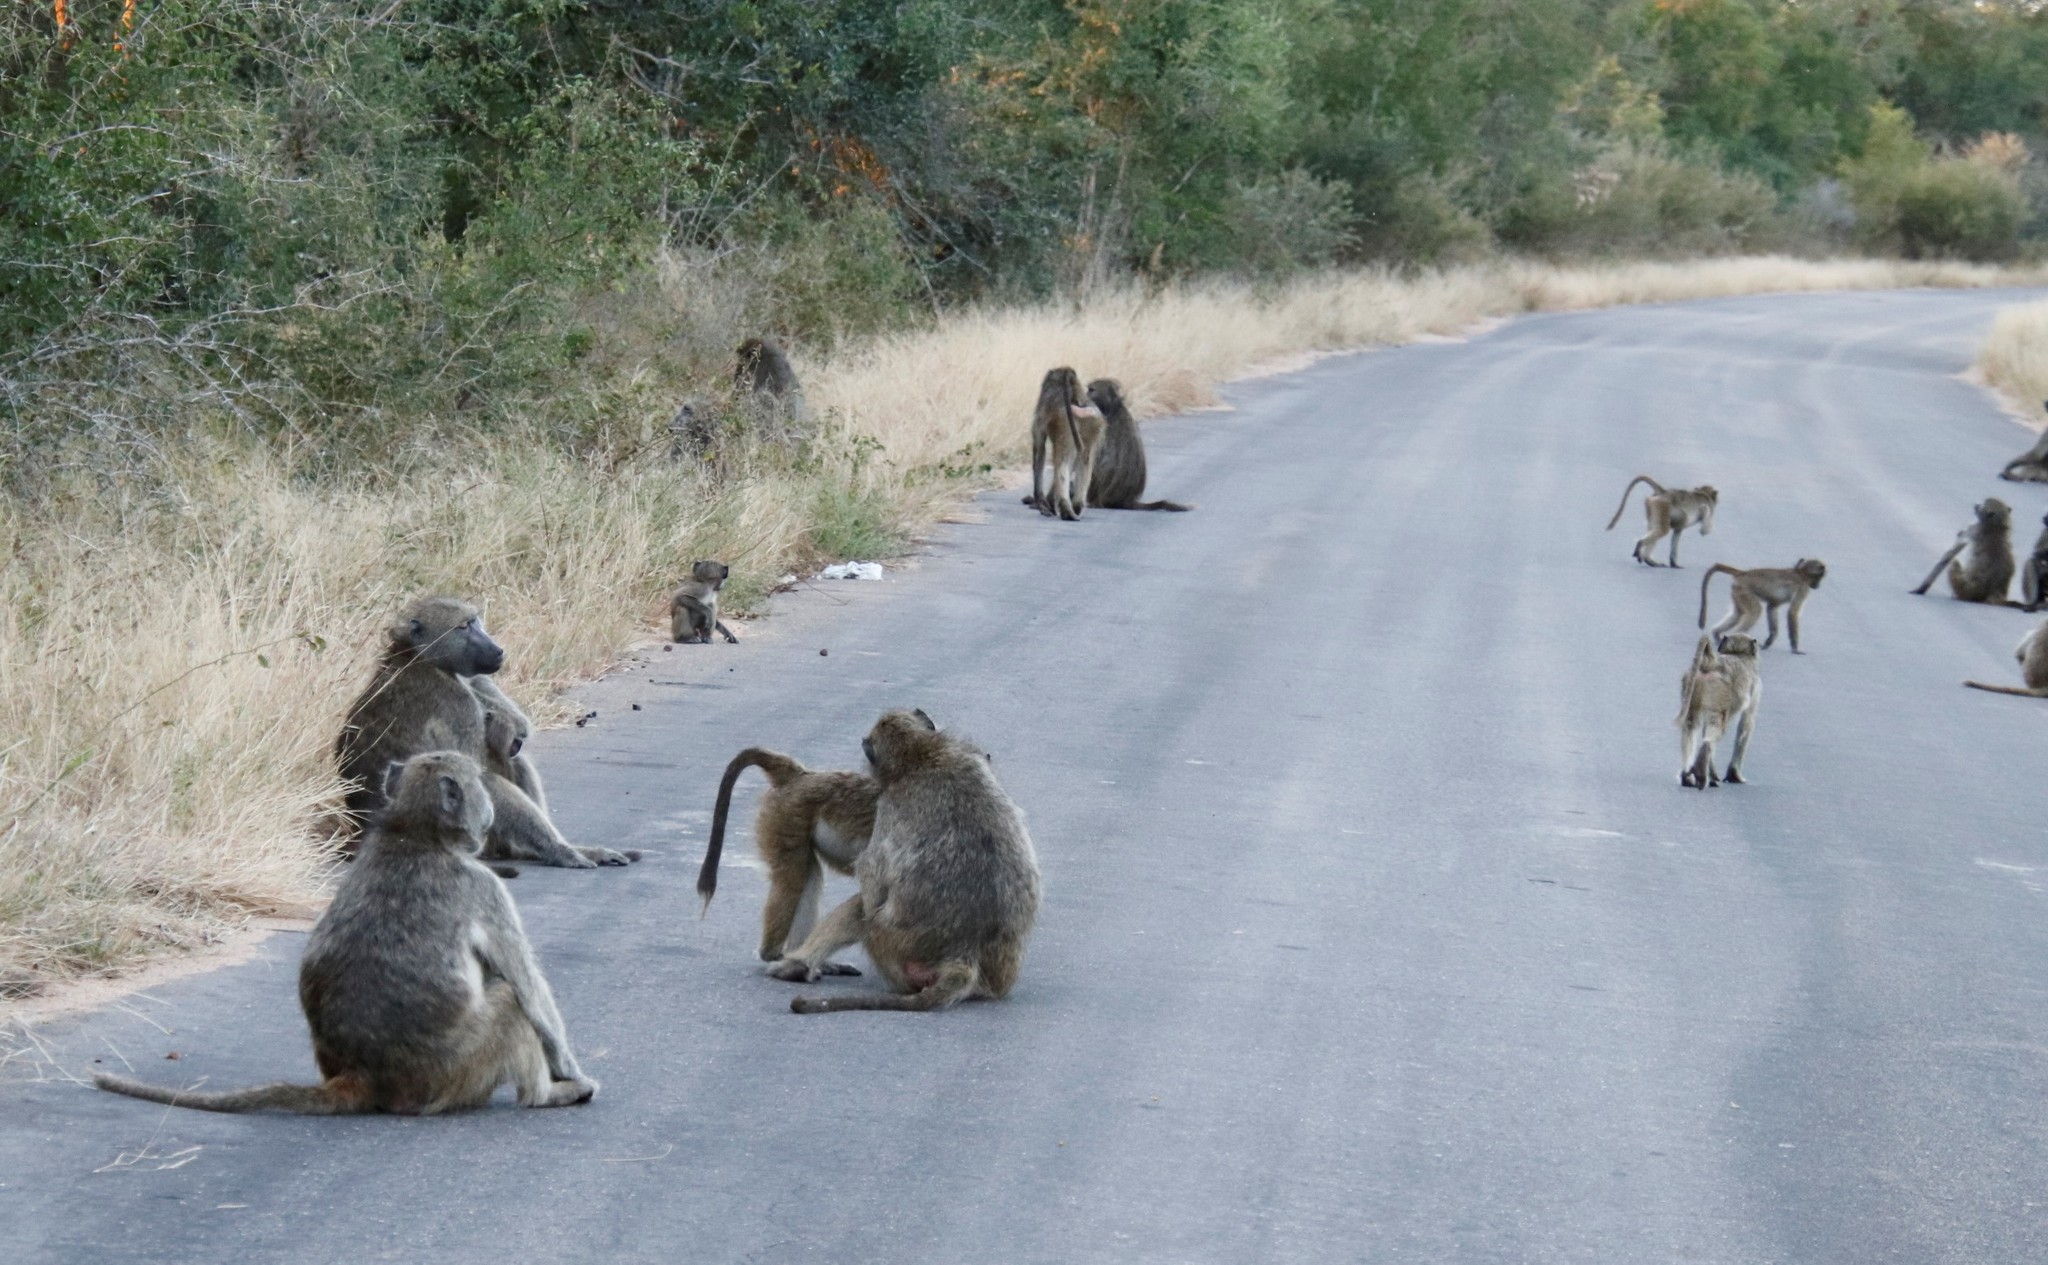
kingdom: Animalia
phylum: Chordata
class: Mammalia
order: Primates
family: Cercopithecidae
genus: Papio
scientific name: Papio ursinus
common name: Chacma baboon
